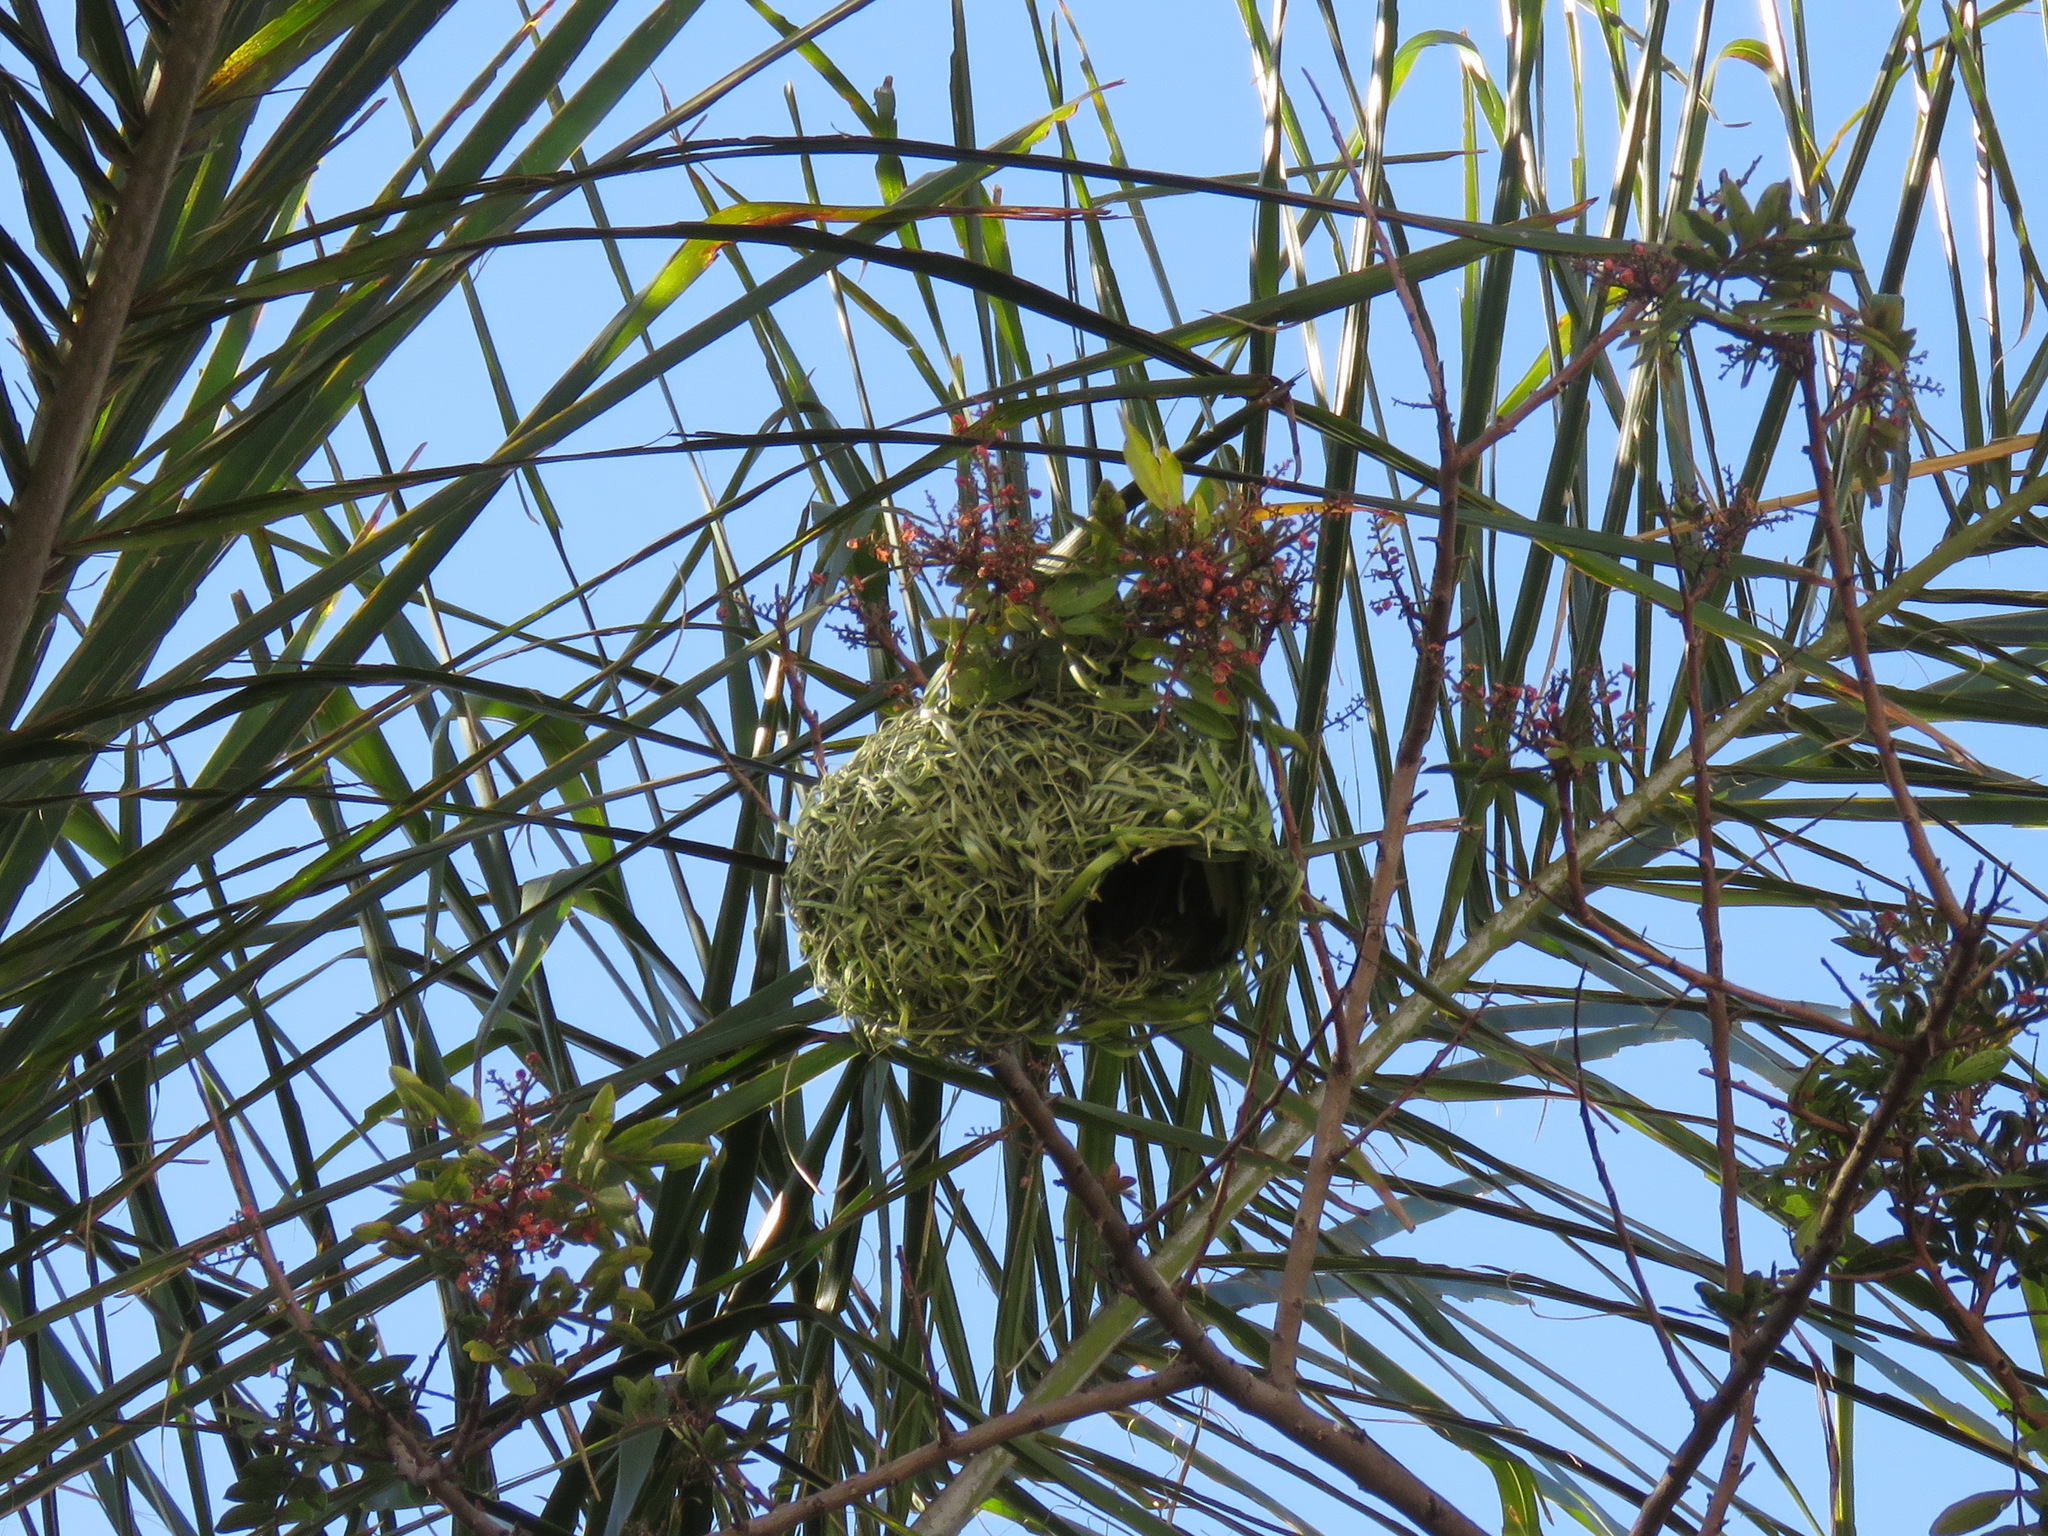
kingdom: Animalia
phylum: Chordata
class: Aves
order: Passeriformes
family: Ploceidae
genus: Ploceus
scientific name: Ploceus velatus
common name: Southern masked weaver
